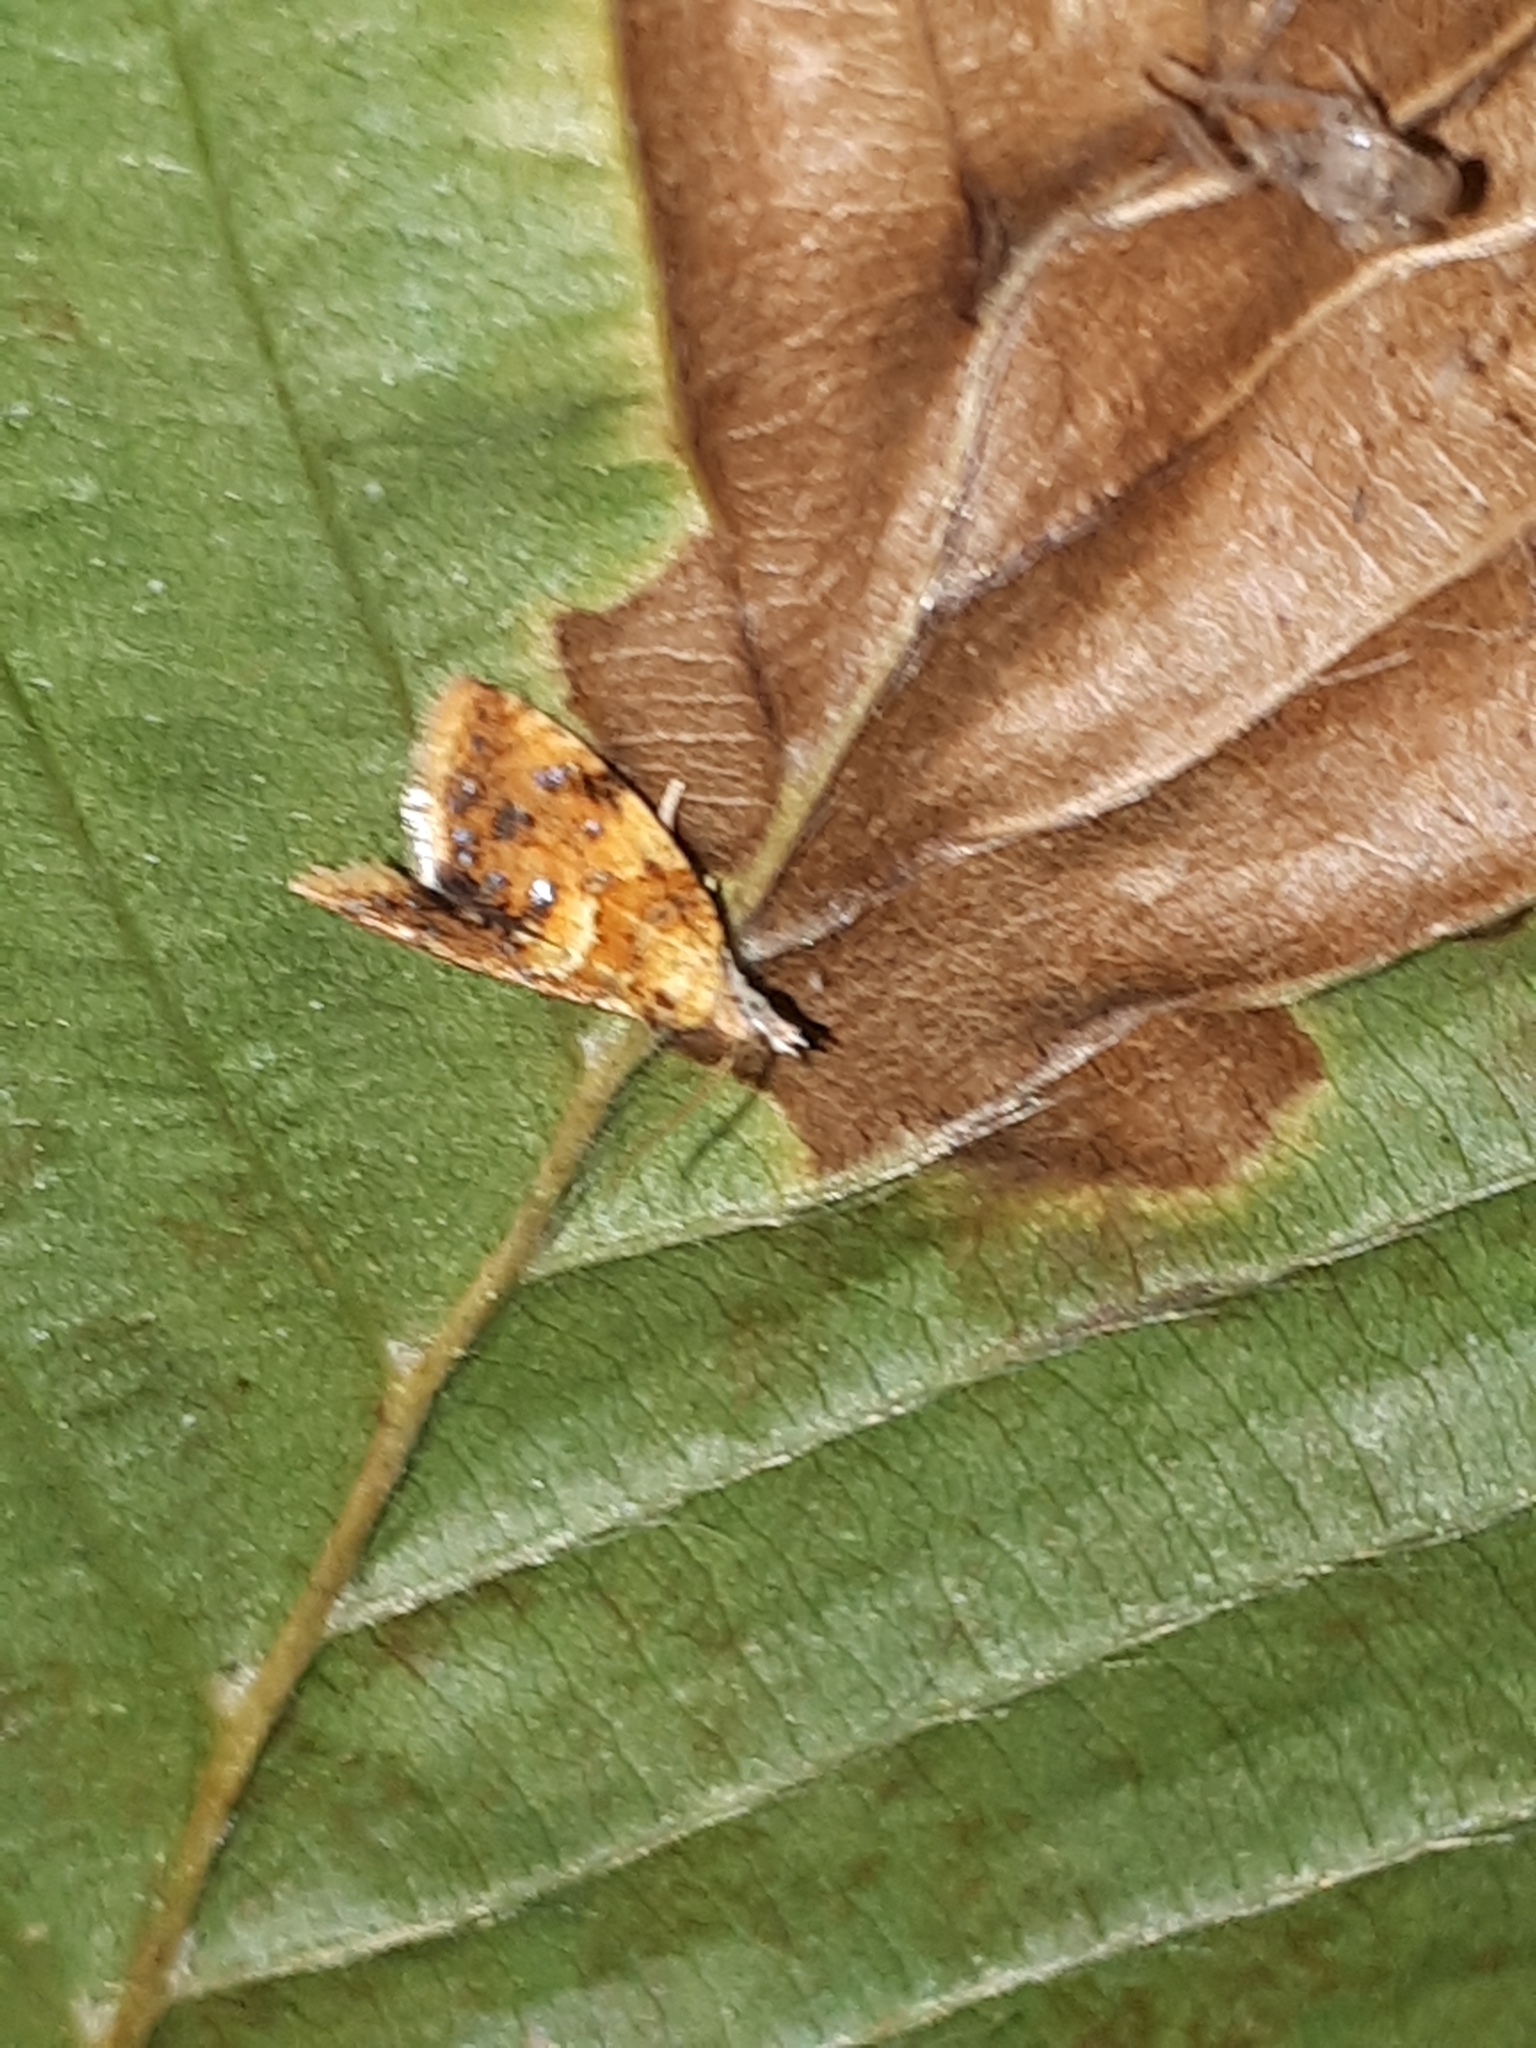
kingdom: Animalia
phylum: Arthropoda
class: Insecta
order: Lepidoptera
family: Tortricidae
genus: Pseudargyrotoza
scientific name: Pseudargyrotoza conwagana
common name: Yellow-spot twist
